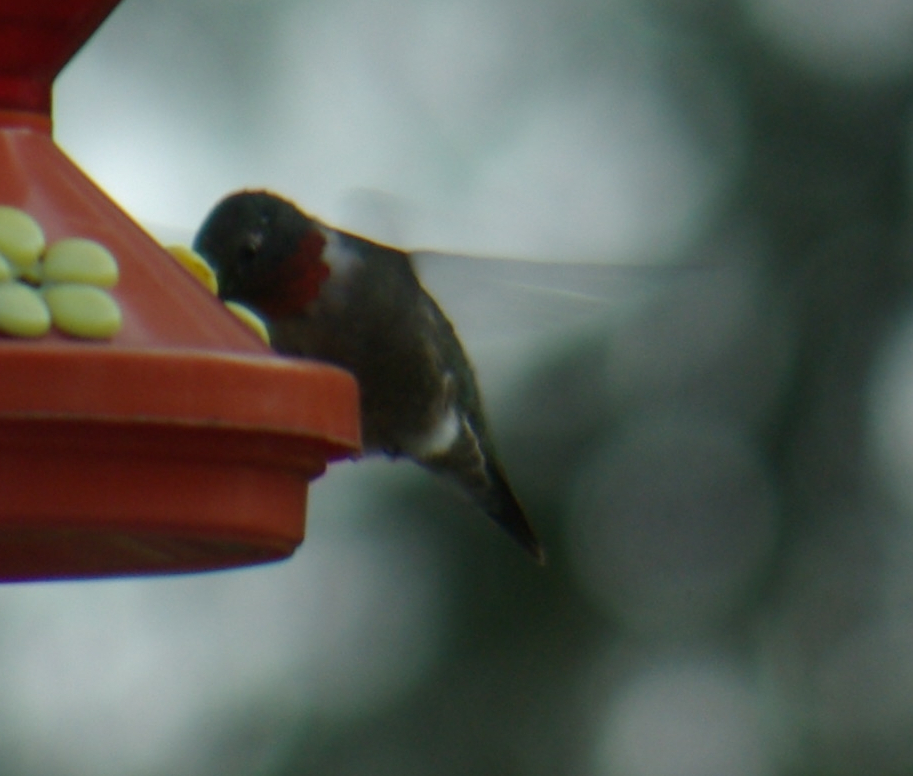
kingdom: Animalia
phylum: Chordata
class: Aves
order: Apodiformes
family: Trochilidae
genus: Archilochus
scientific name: Archilochus colubris
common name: Ruby-throated hummingbird
